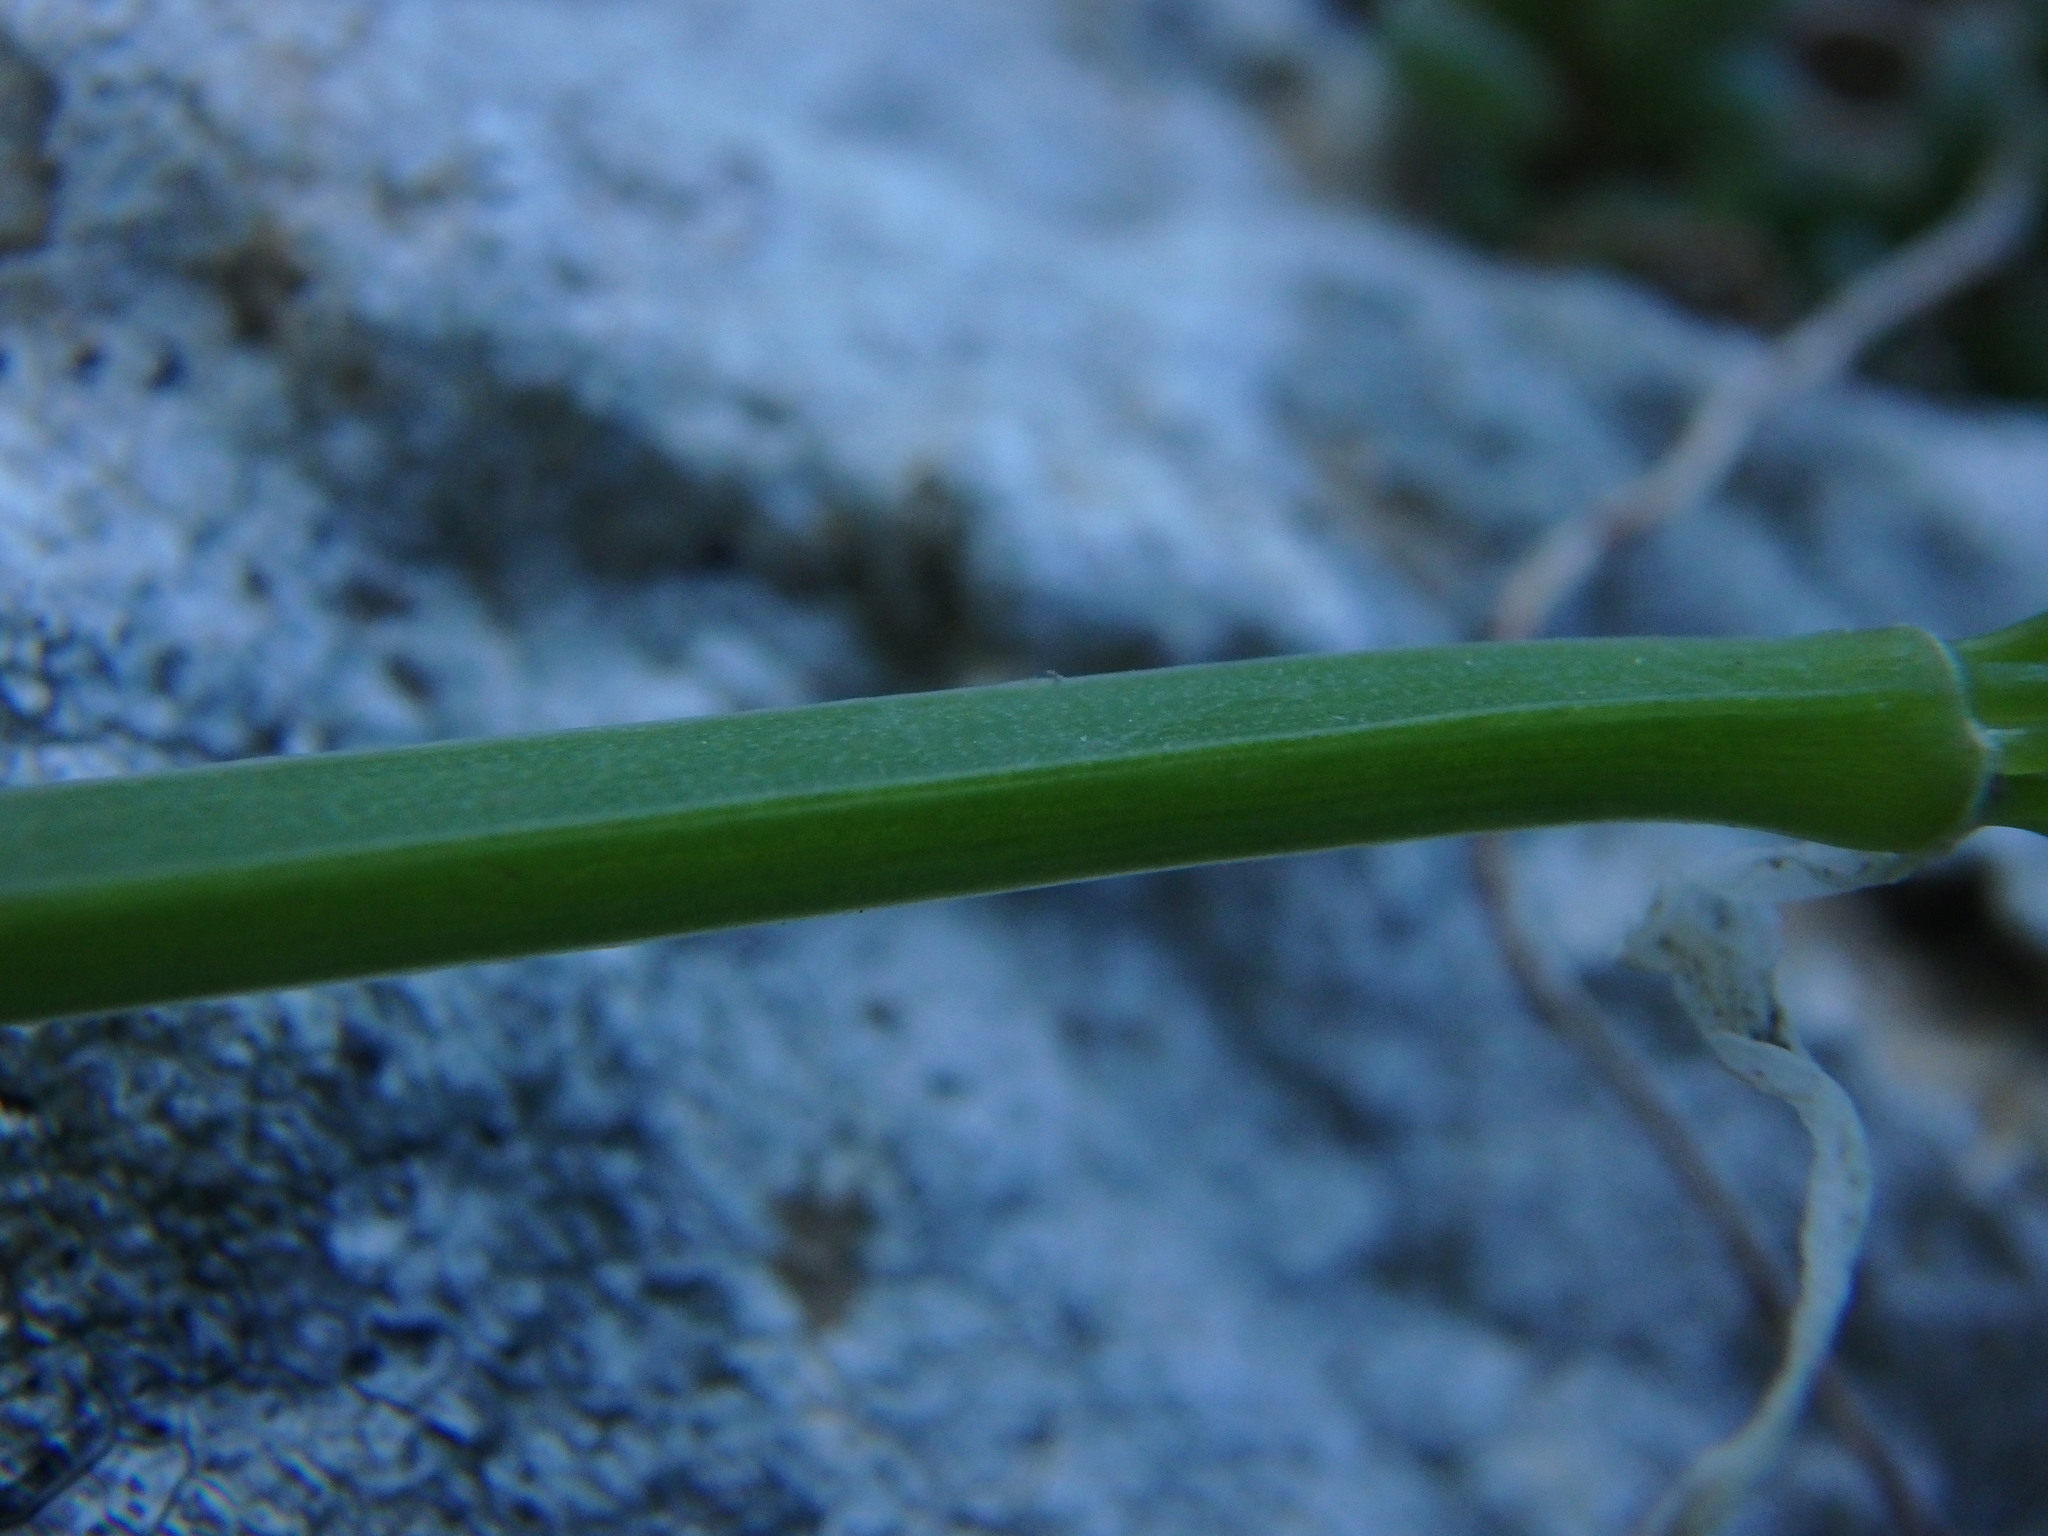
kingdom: Plantae
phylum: Tracheophyta
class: Liliopsida
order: Asparagales
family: Amaryllidaceae
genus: Allium
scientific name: Allium triquetrum
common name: Three-cornered garlic
